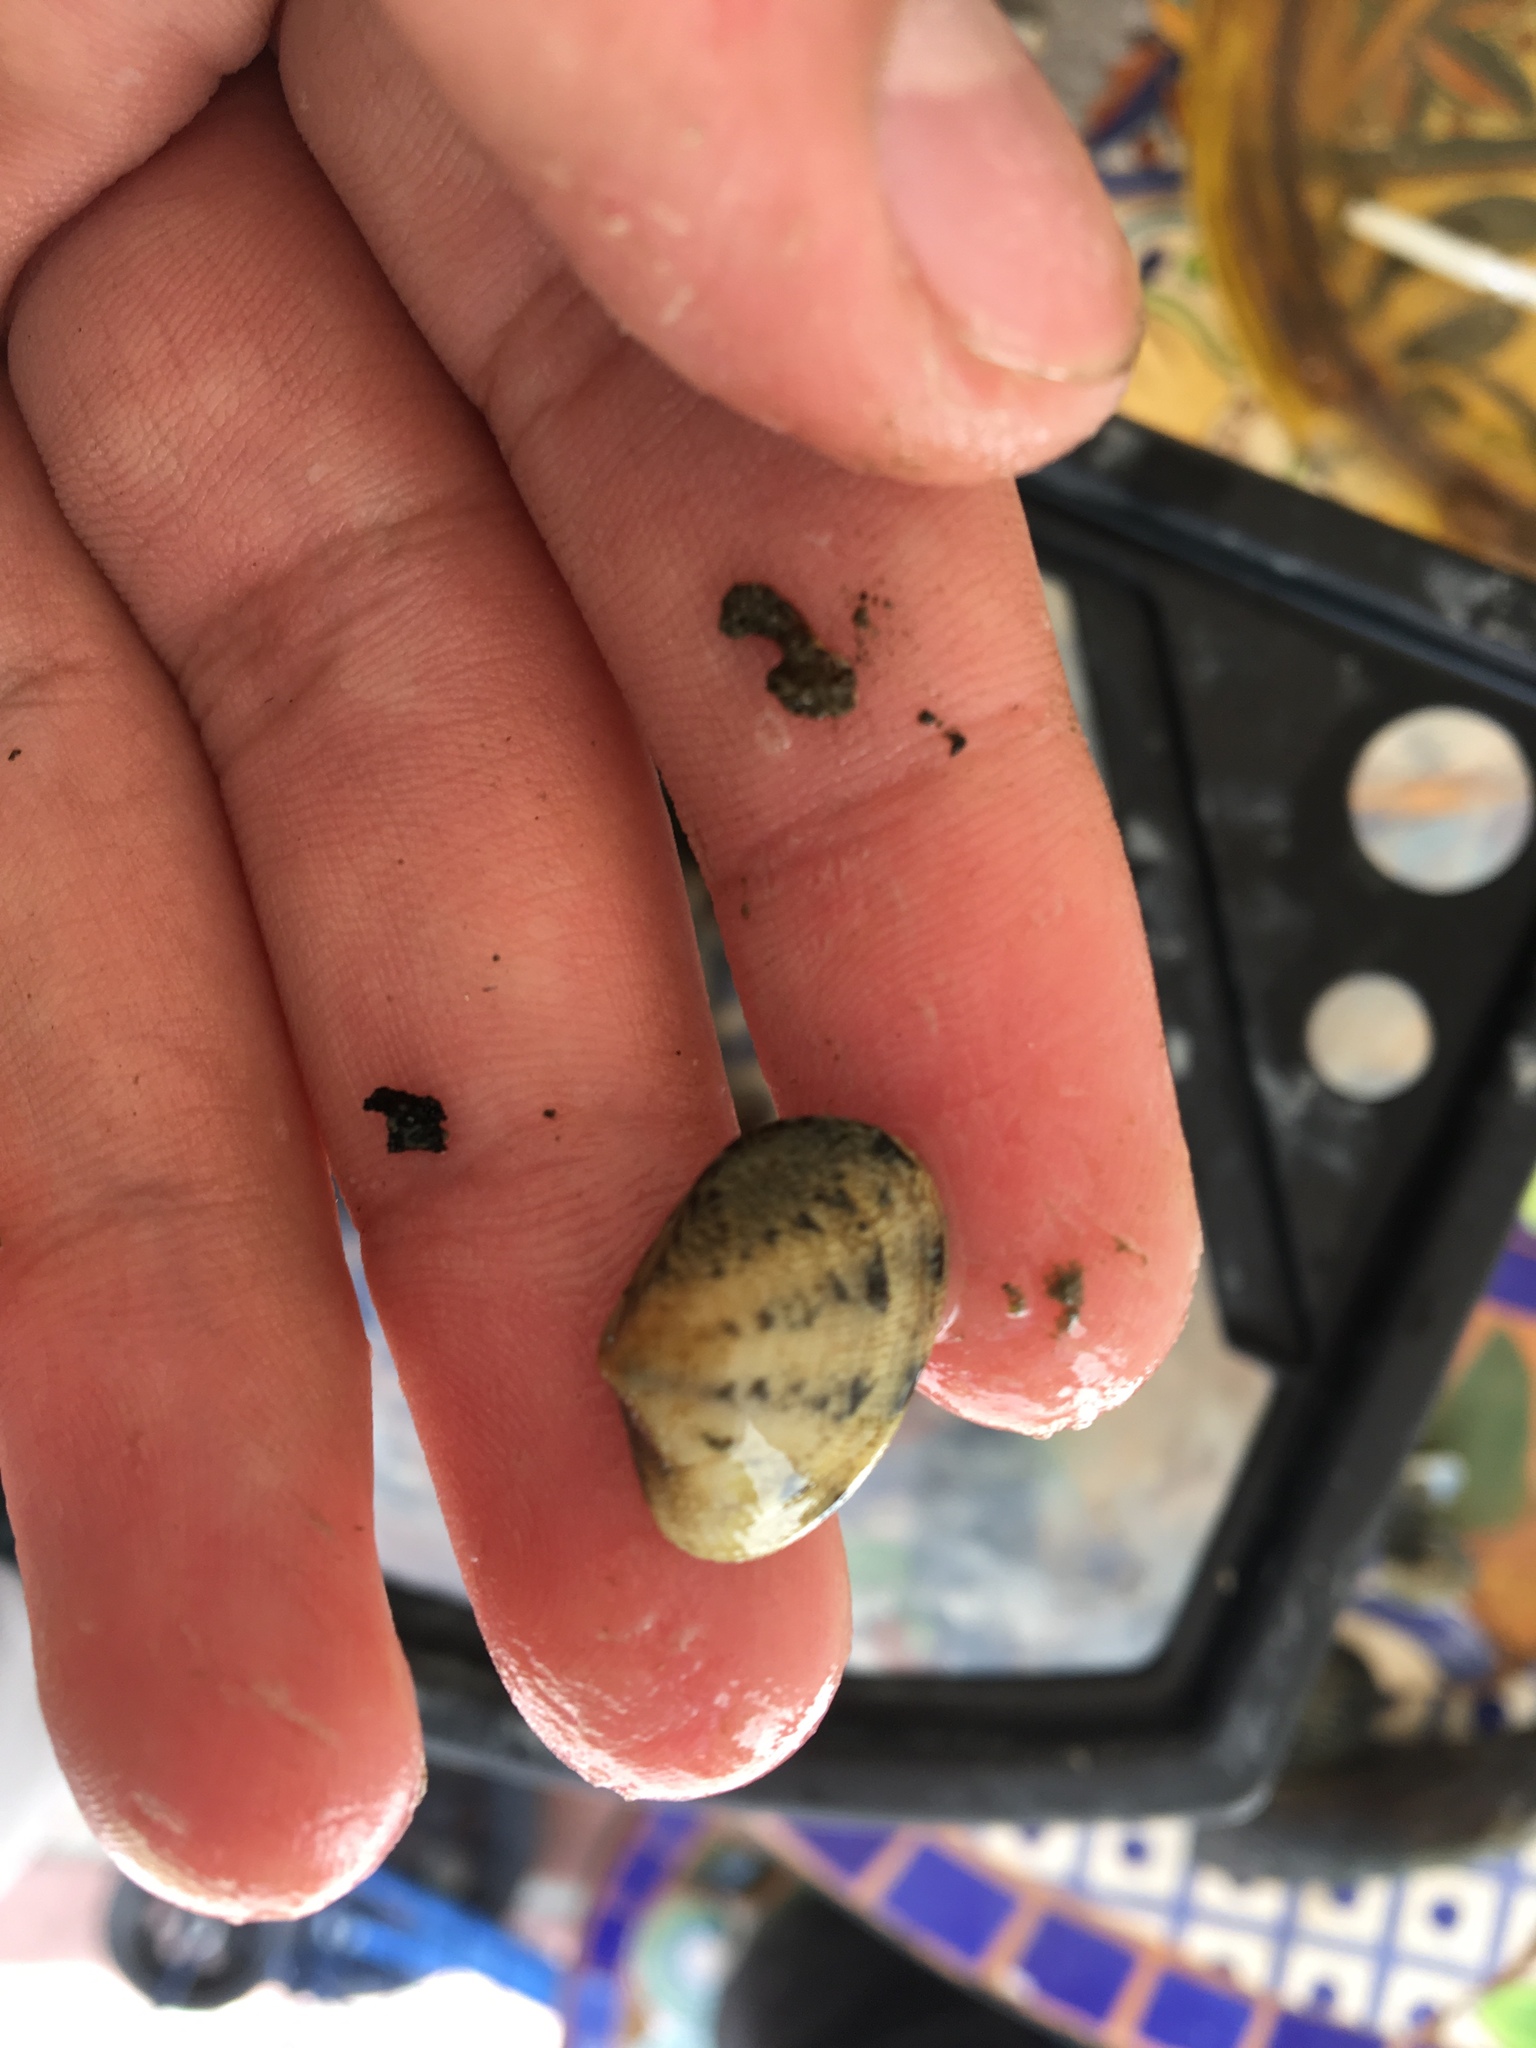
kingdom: Animalia
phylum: Mollusca
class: Bivalvia
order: Venerida
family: Veneridae
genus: Ruditapes
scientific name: Ruditapes philippinarum
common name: Manila clam
